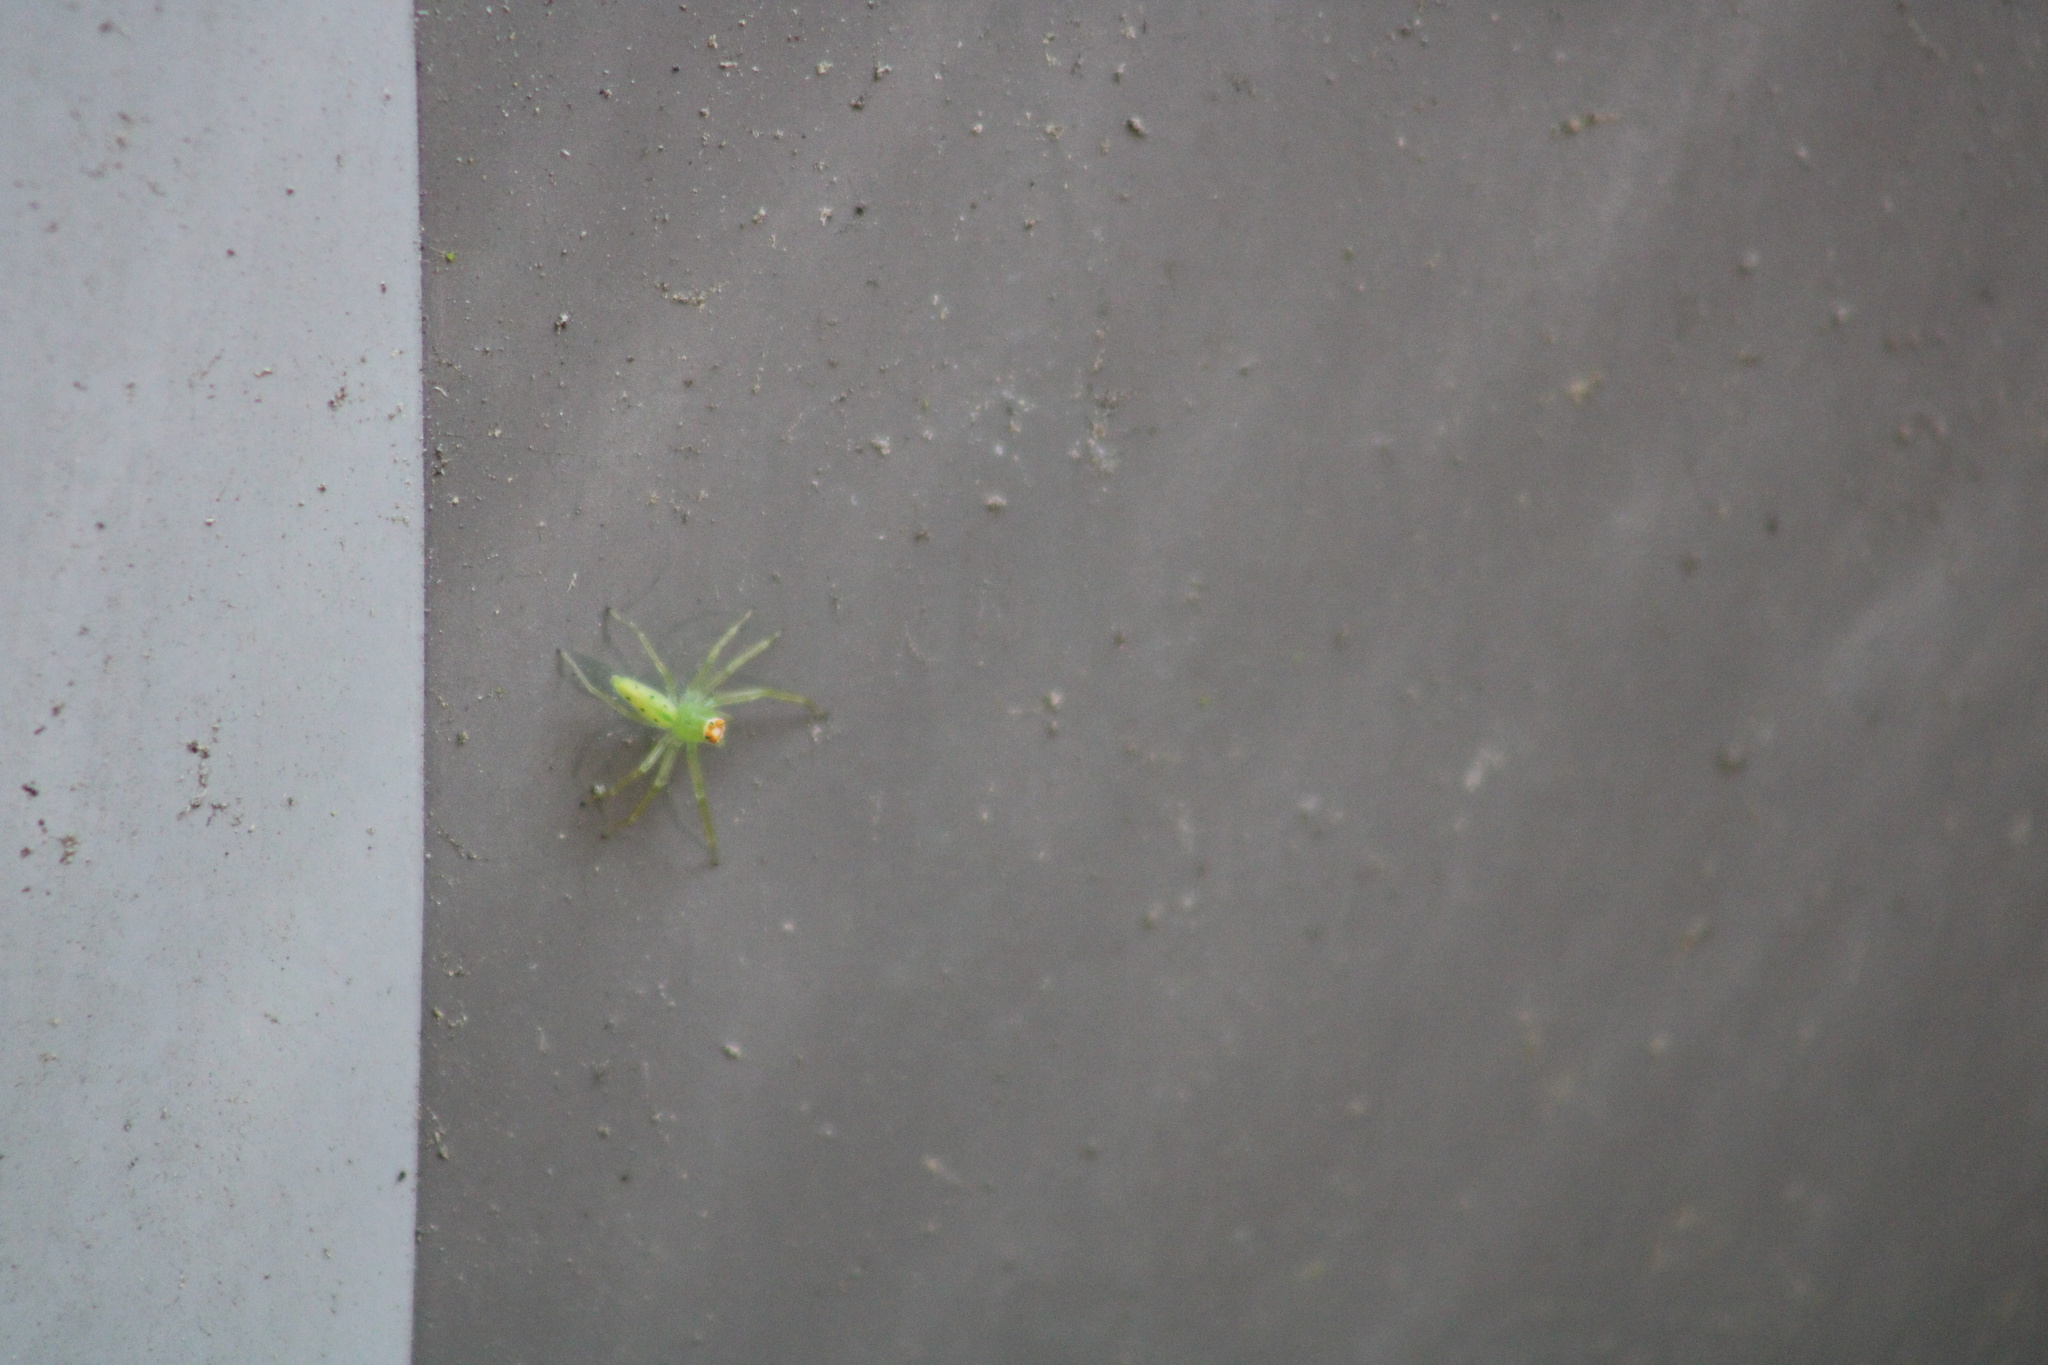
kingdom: Animalia
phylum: Arthropoda
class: Arachnida
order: Araneae
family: Salticidae
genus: Lyssomanes
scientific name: Lyssomanes viridis
